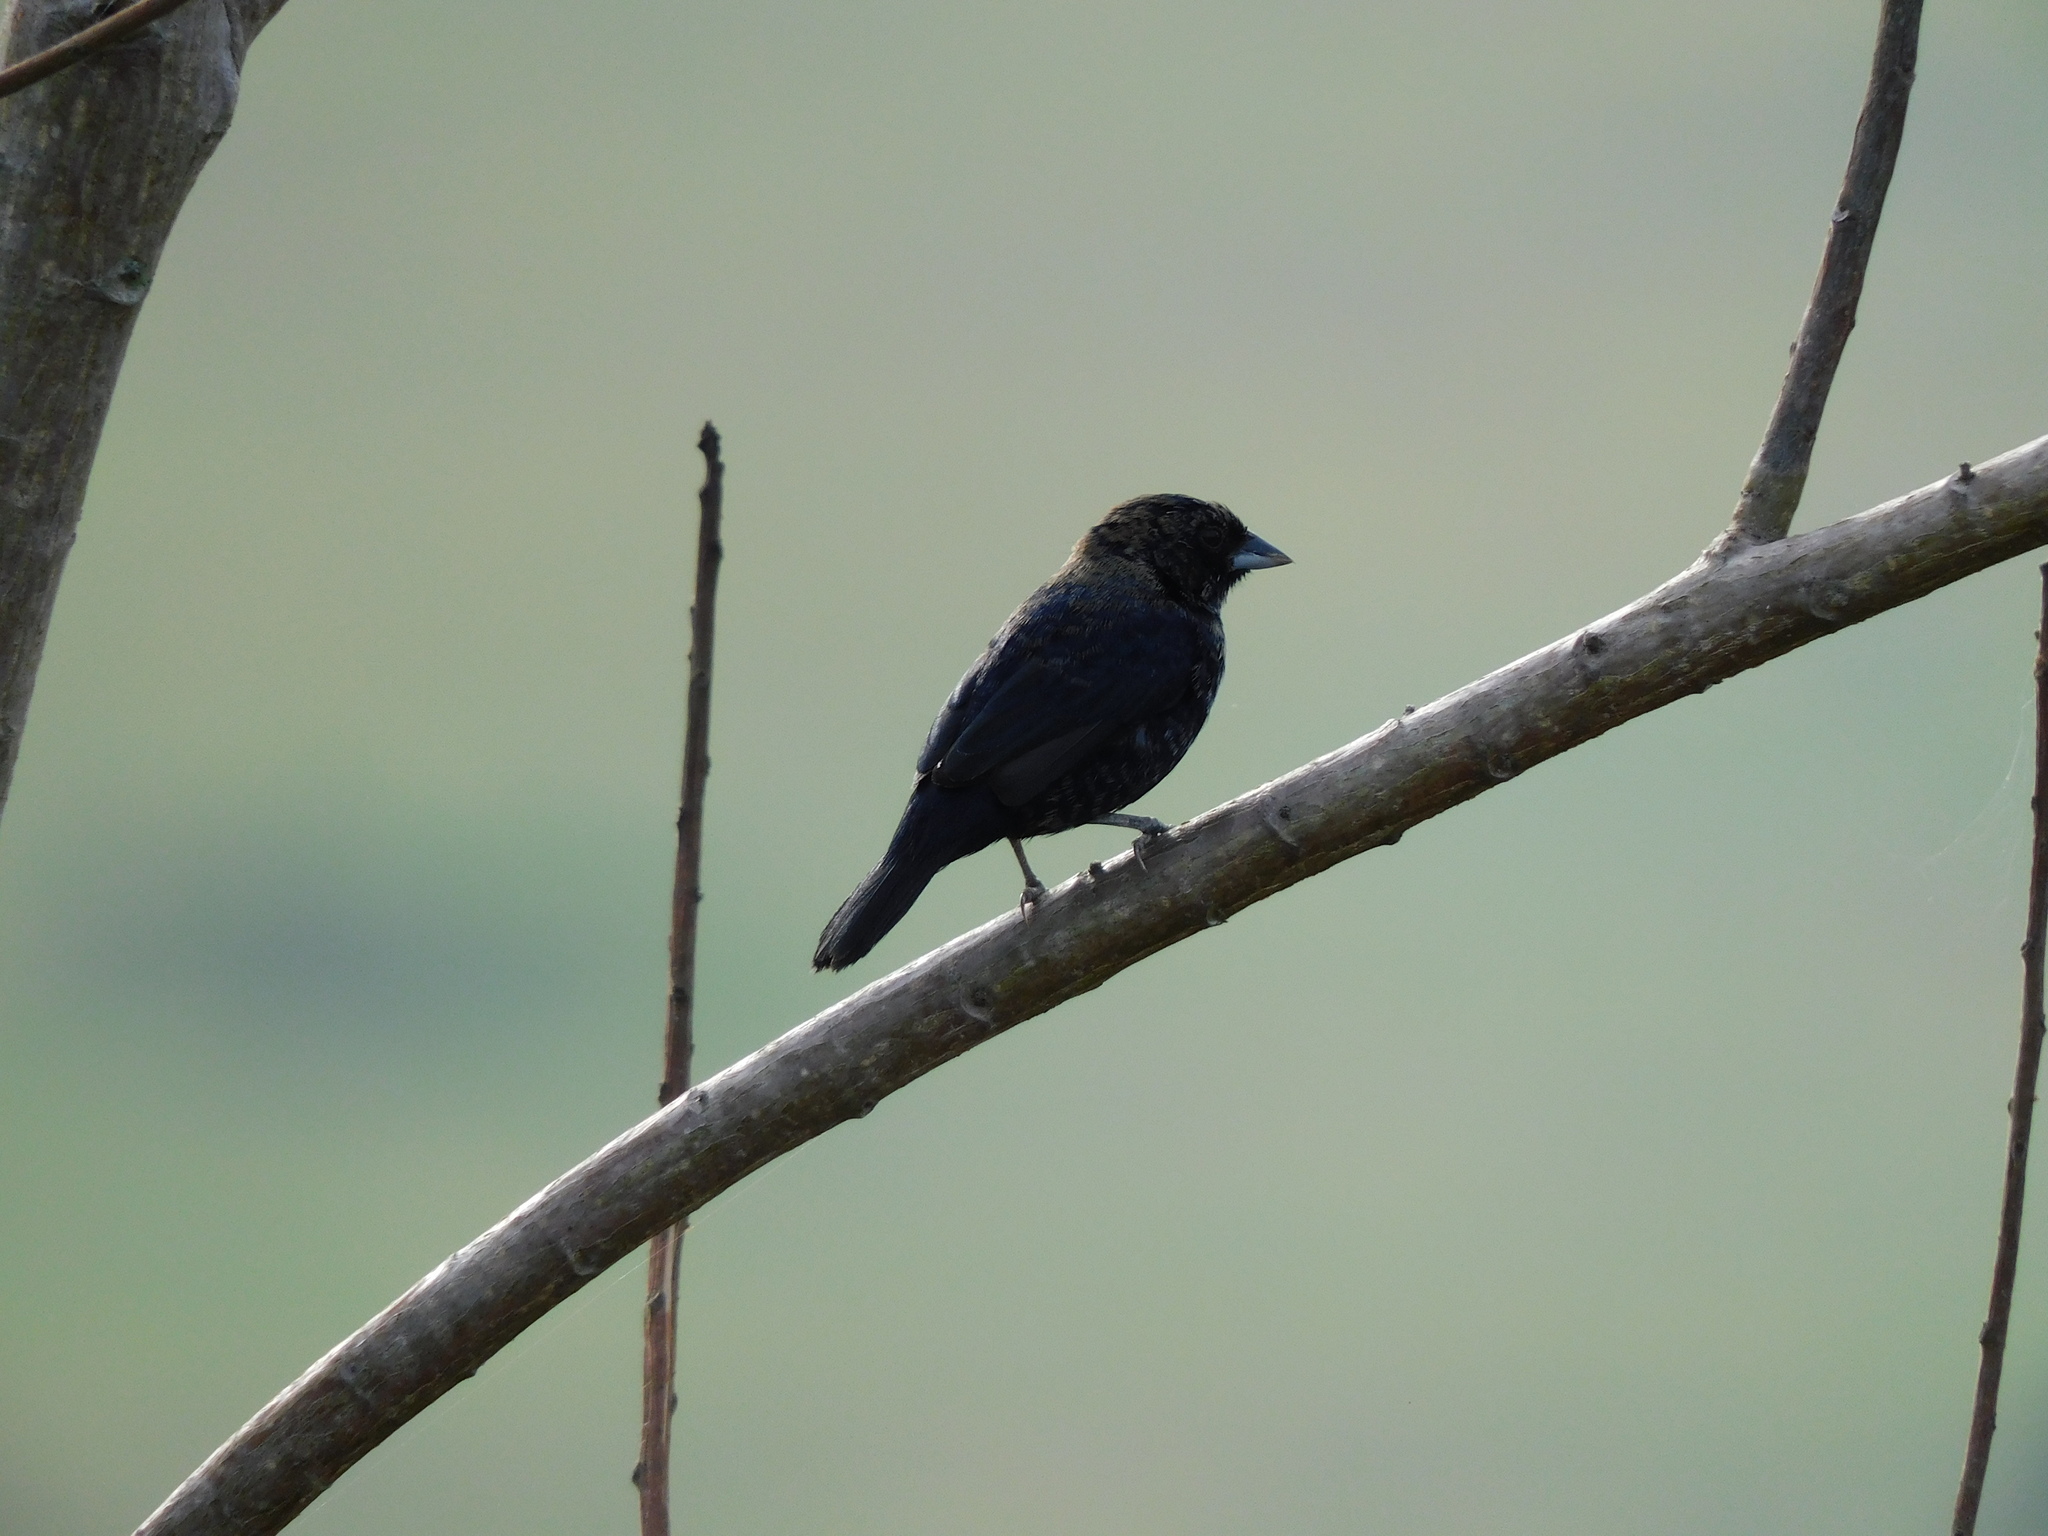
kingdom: Animalia
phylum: Chordata
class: Aves
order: Passeriformes
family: Thraupidae
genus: Volatinia
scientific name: Volatinia jacarina
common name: Blue-black grassquit
